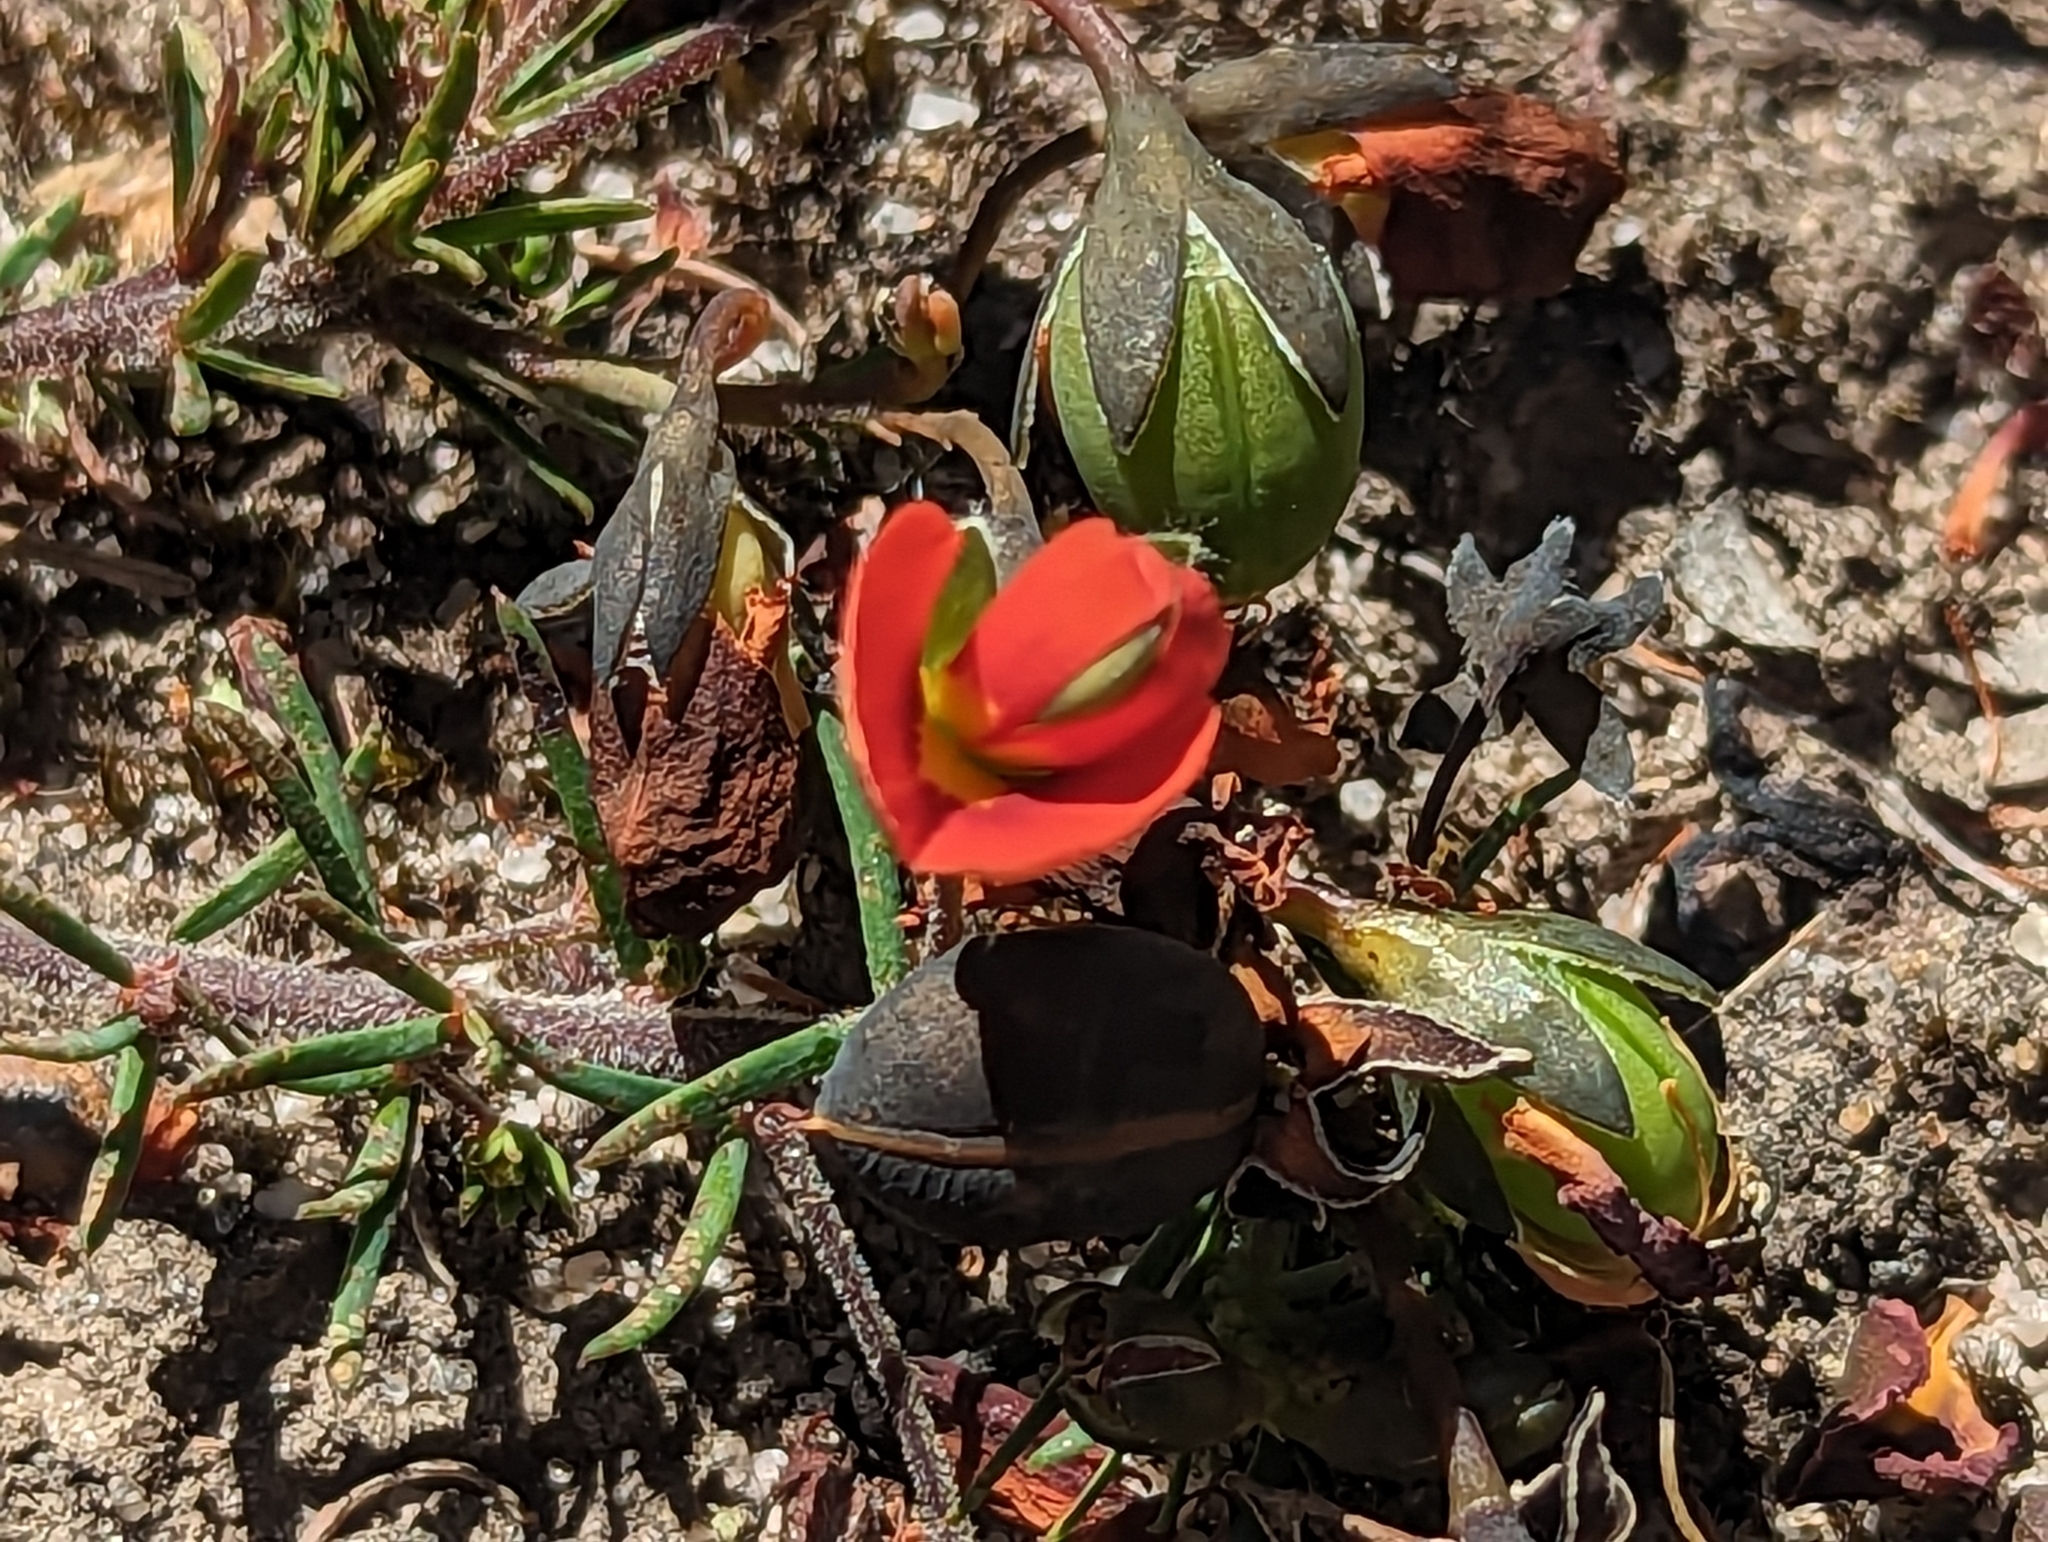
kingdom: Plantae
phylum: Tracheophyta
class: Magnoliopsida
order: Fabales
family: Fabaceae
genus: Gompholobium
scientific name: Gompholobium ecostatum
